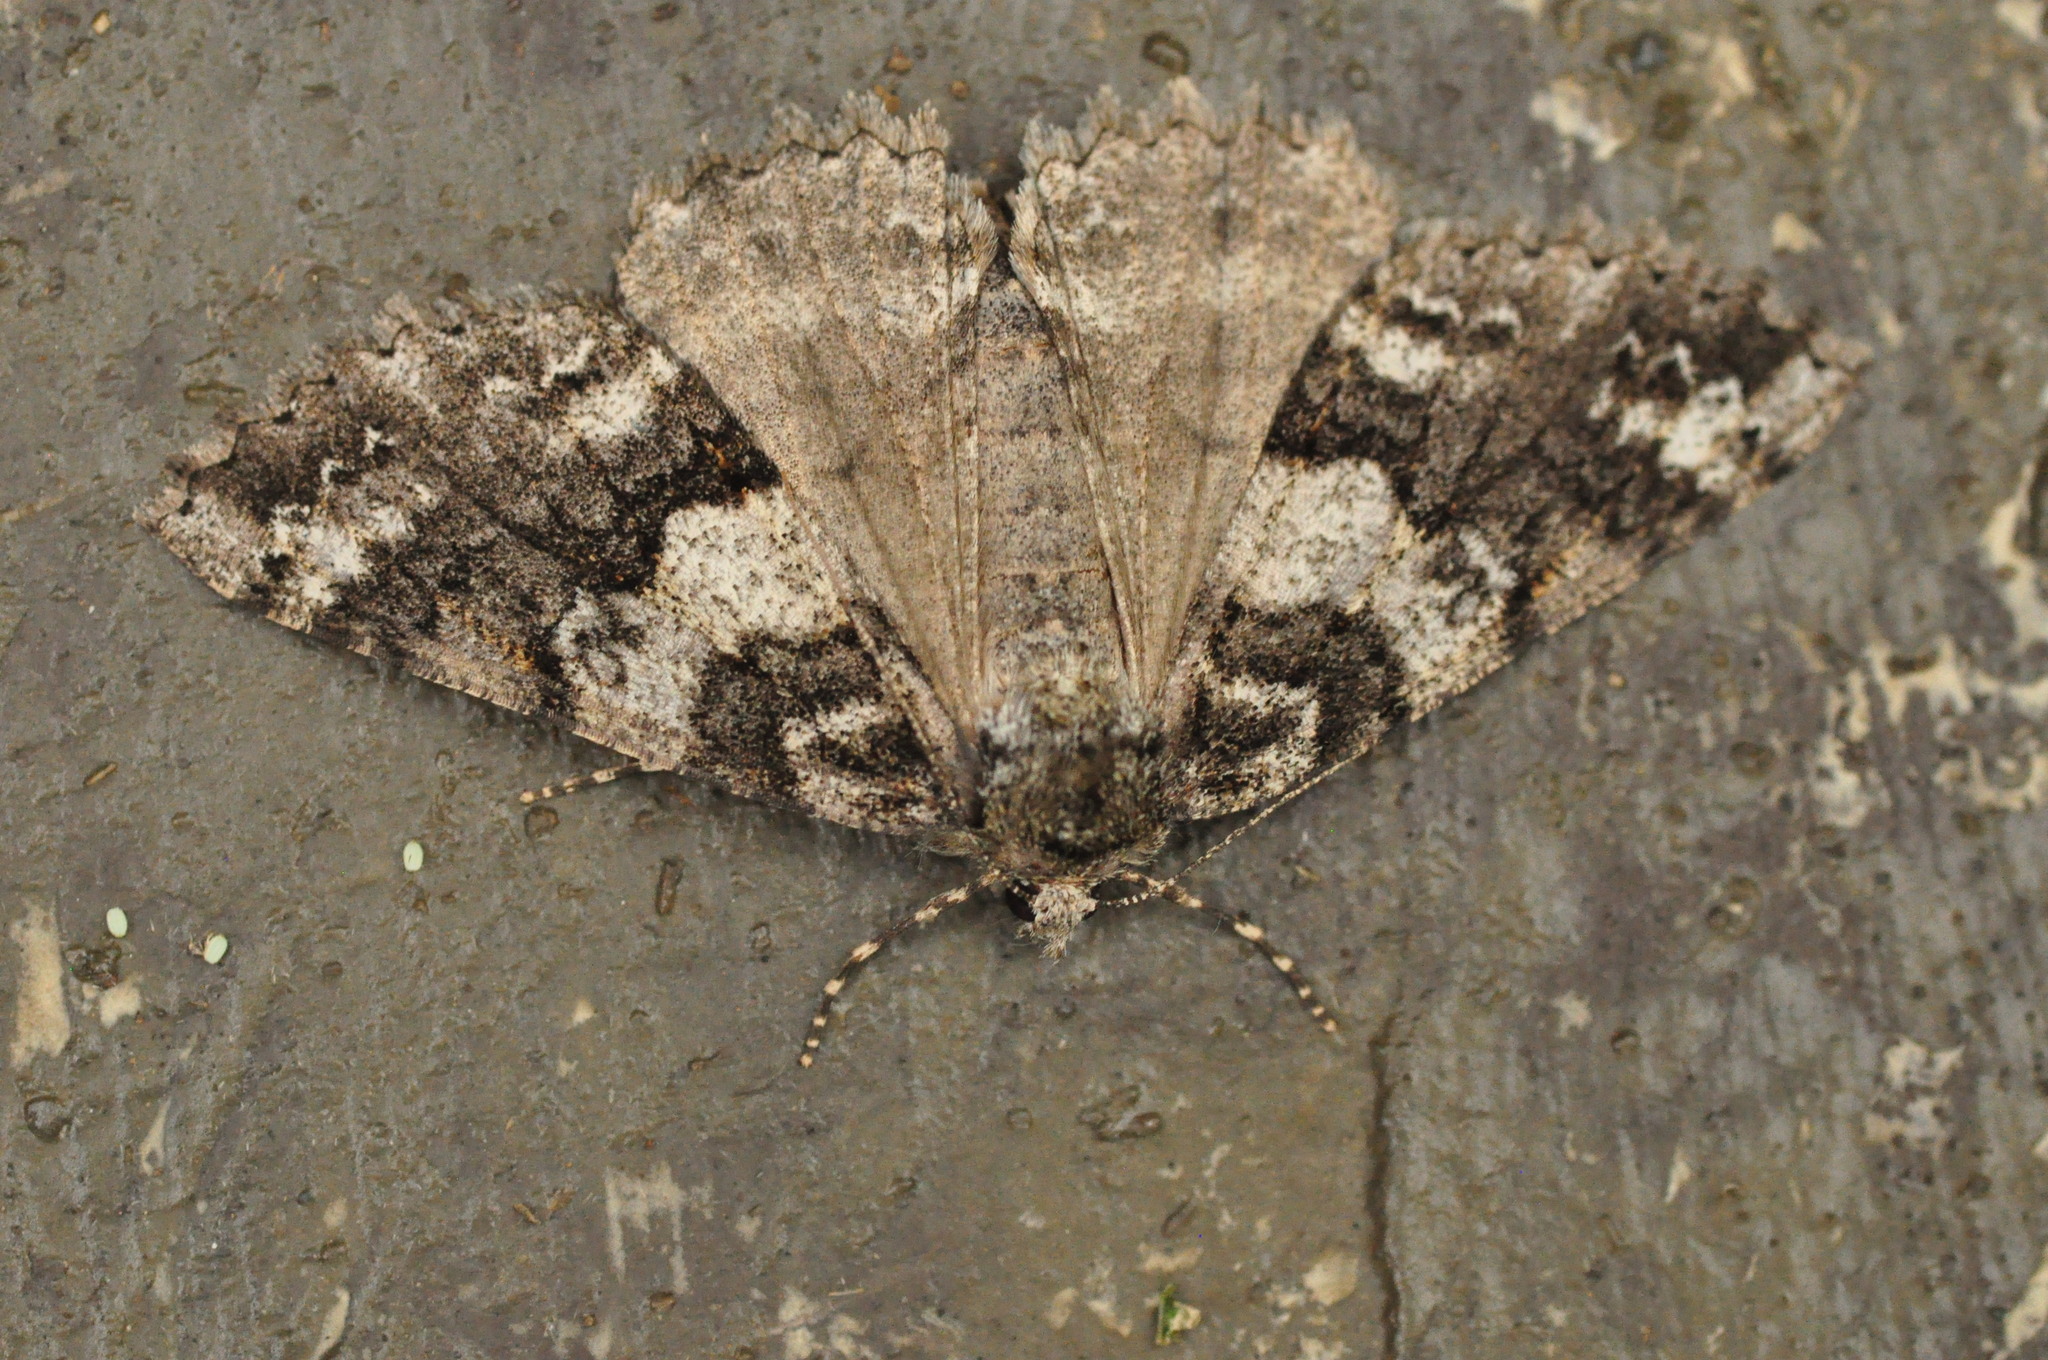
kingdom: Animalia
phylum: Arthropoda
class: Insecta
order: Lepidoptera
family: Geometridae
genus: Ascotis
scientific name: Ascotis fortunata
